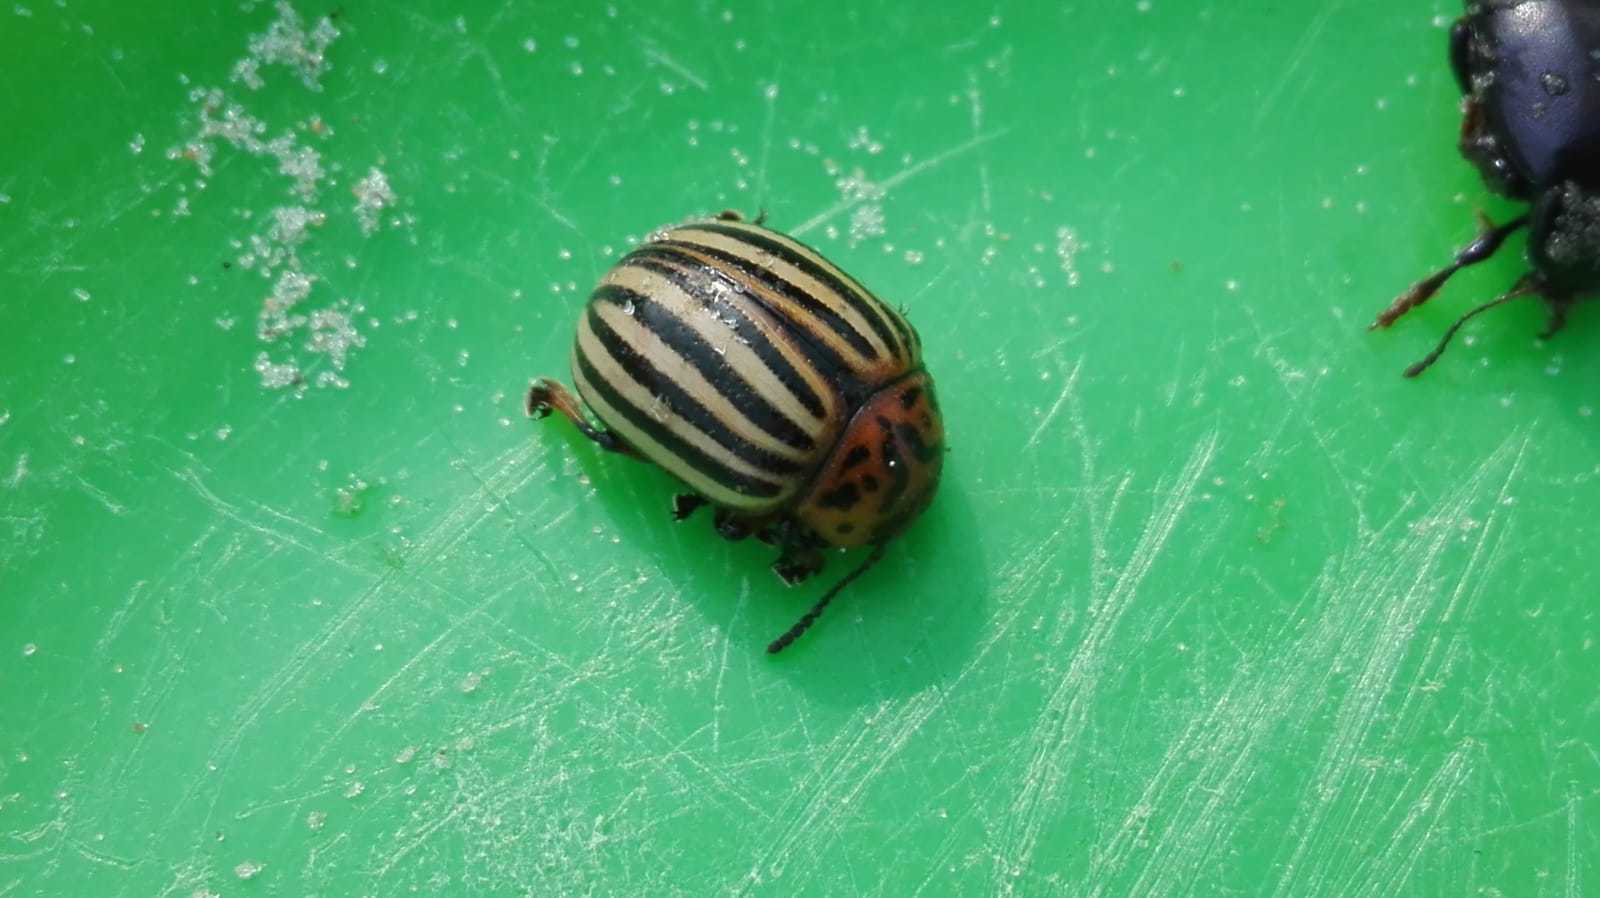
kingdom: Animalia
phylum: Arthropoda
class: Insecta
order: Coleoptera
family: Chrysomelidae
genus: Leptinotarsa
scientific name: Leptinotarsa decemlineata
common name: Colorado potato beetle
